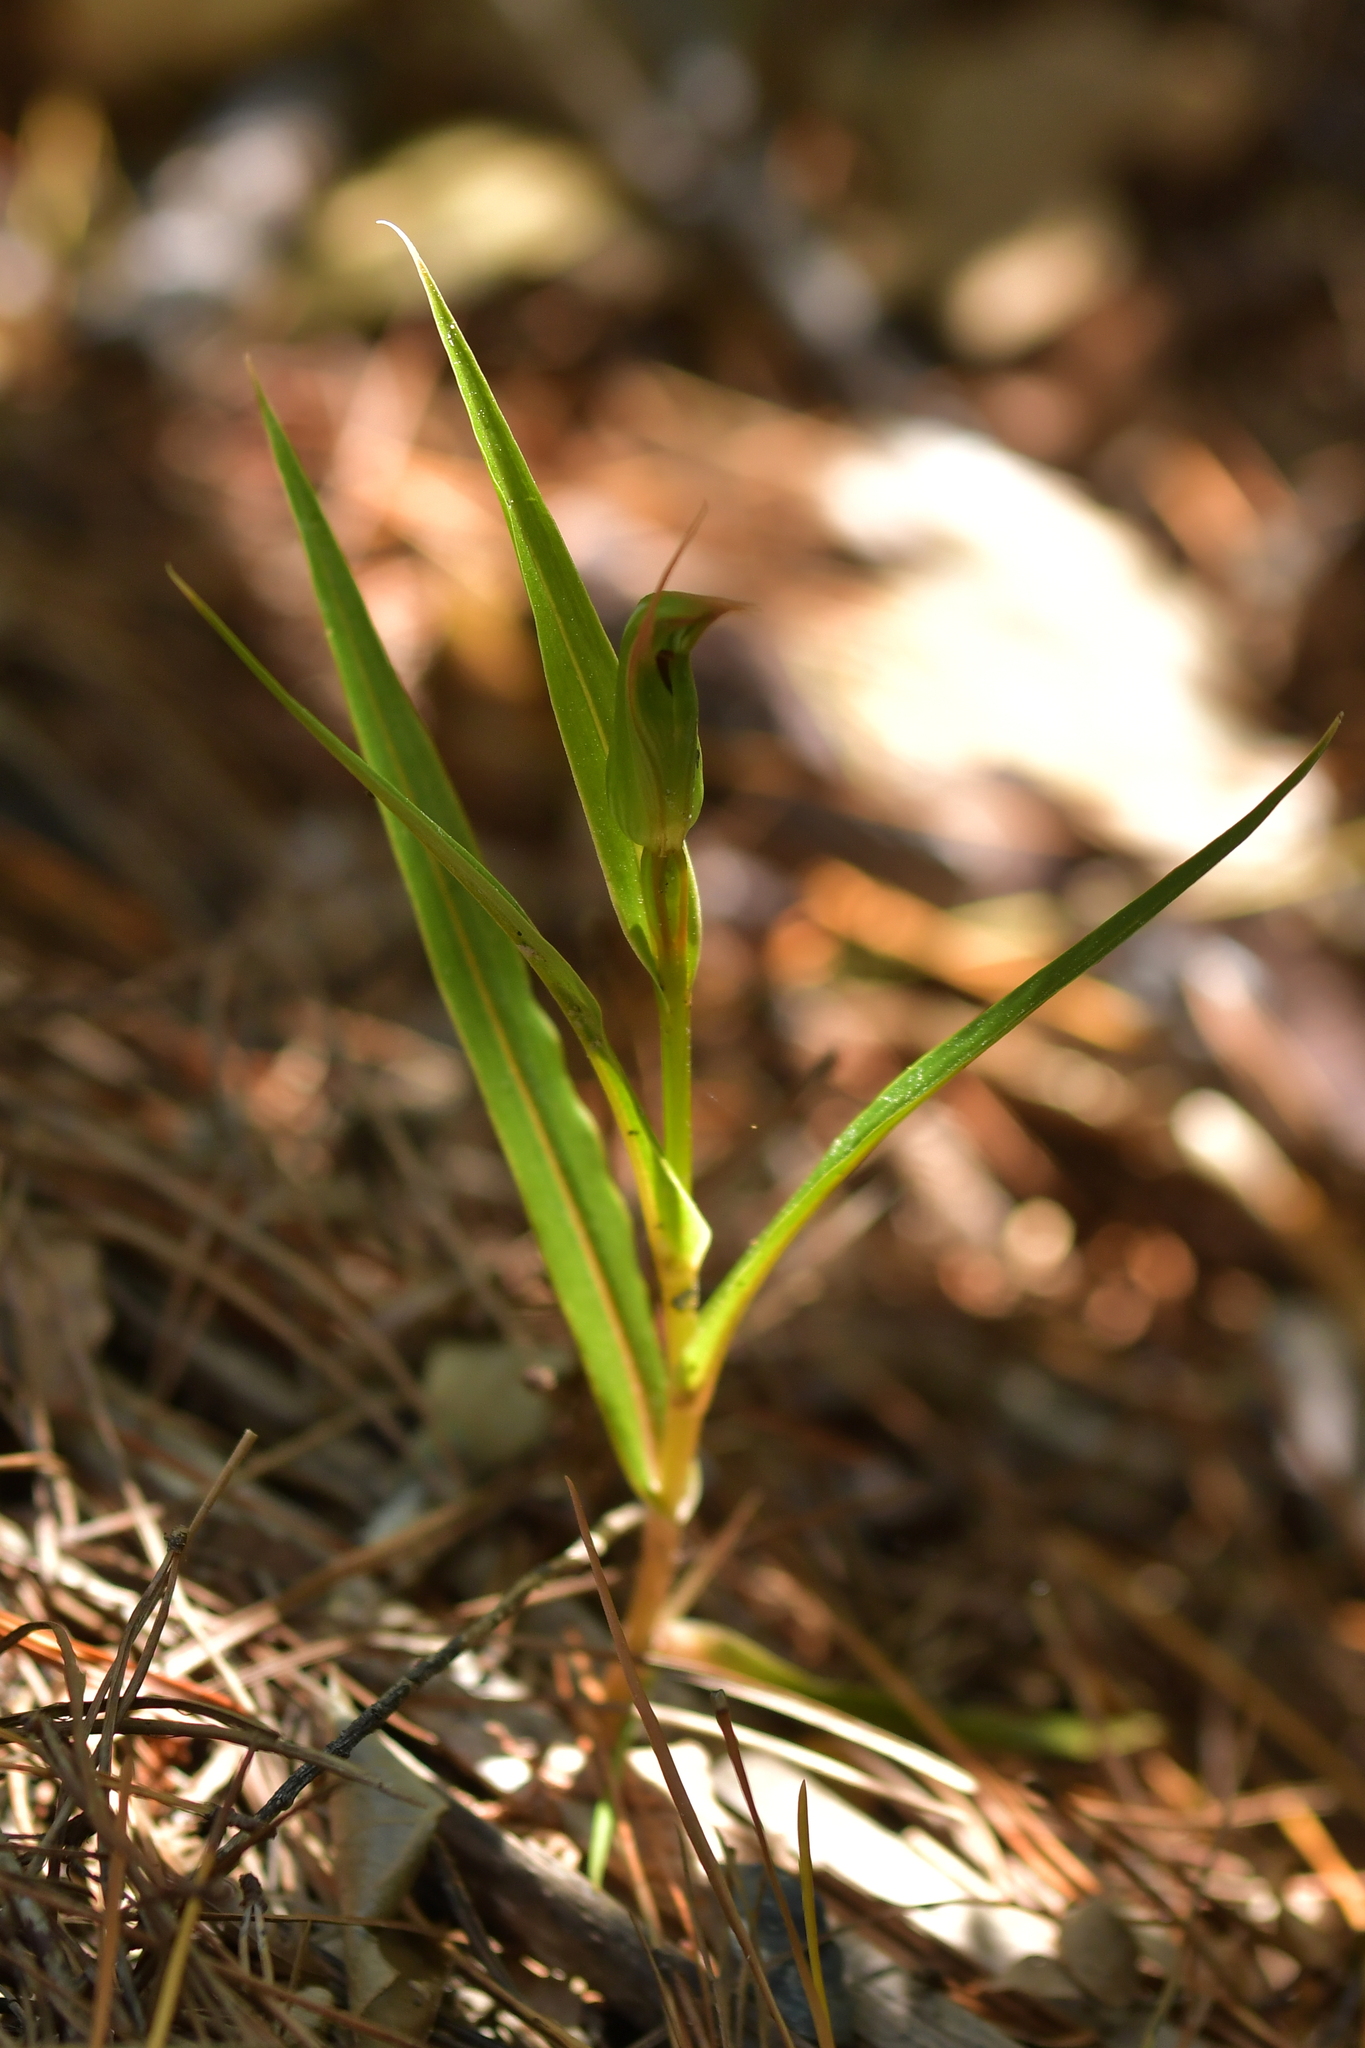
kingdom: Plantae
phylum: Tracheophyta
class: Liliopsida
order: Asparagales
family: Orchidaceae
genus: Pterostylis
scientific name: Pterostylis cardiostigma
